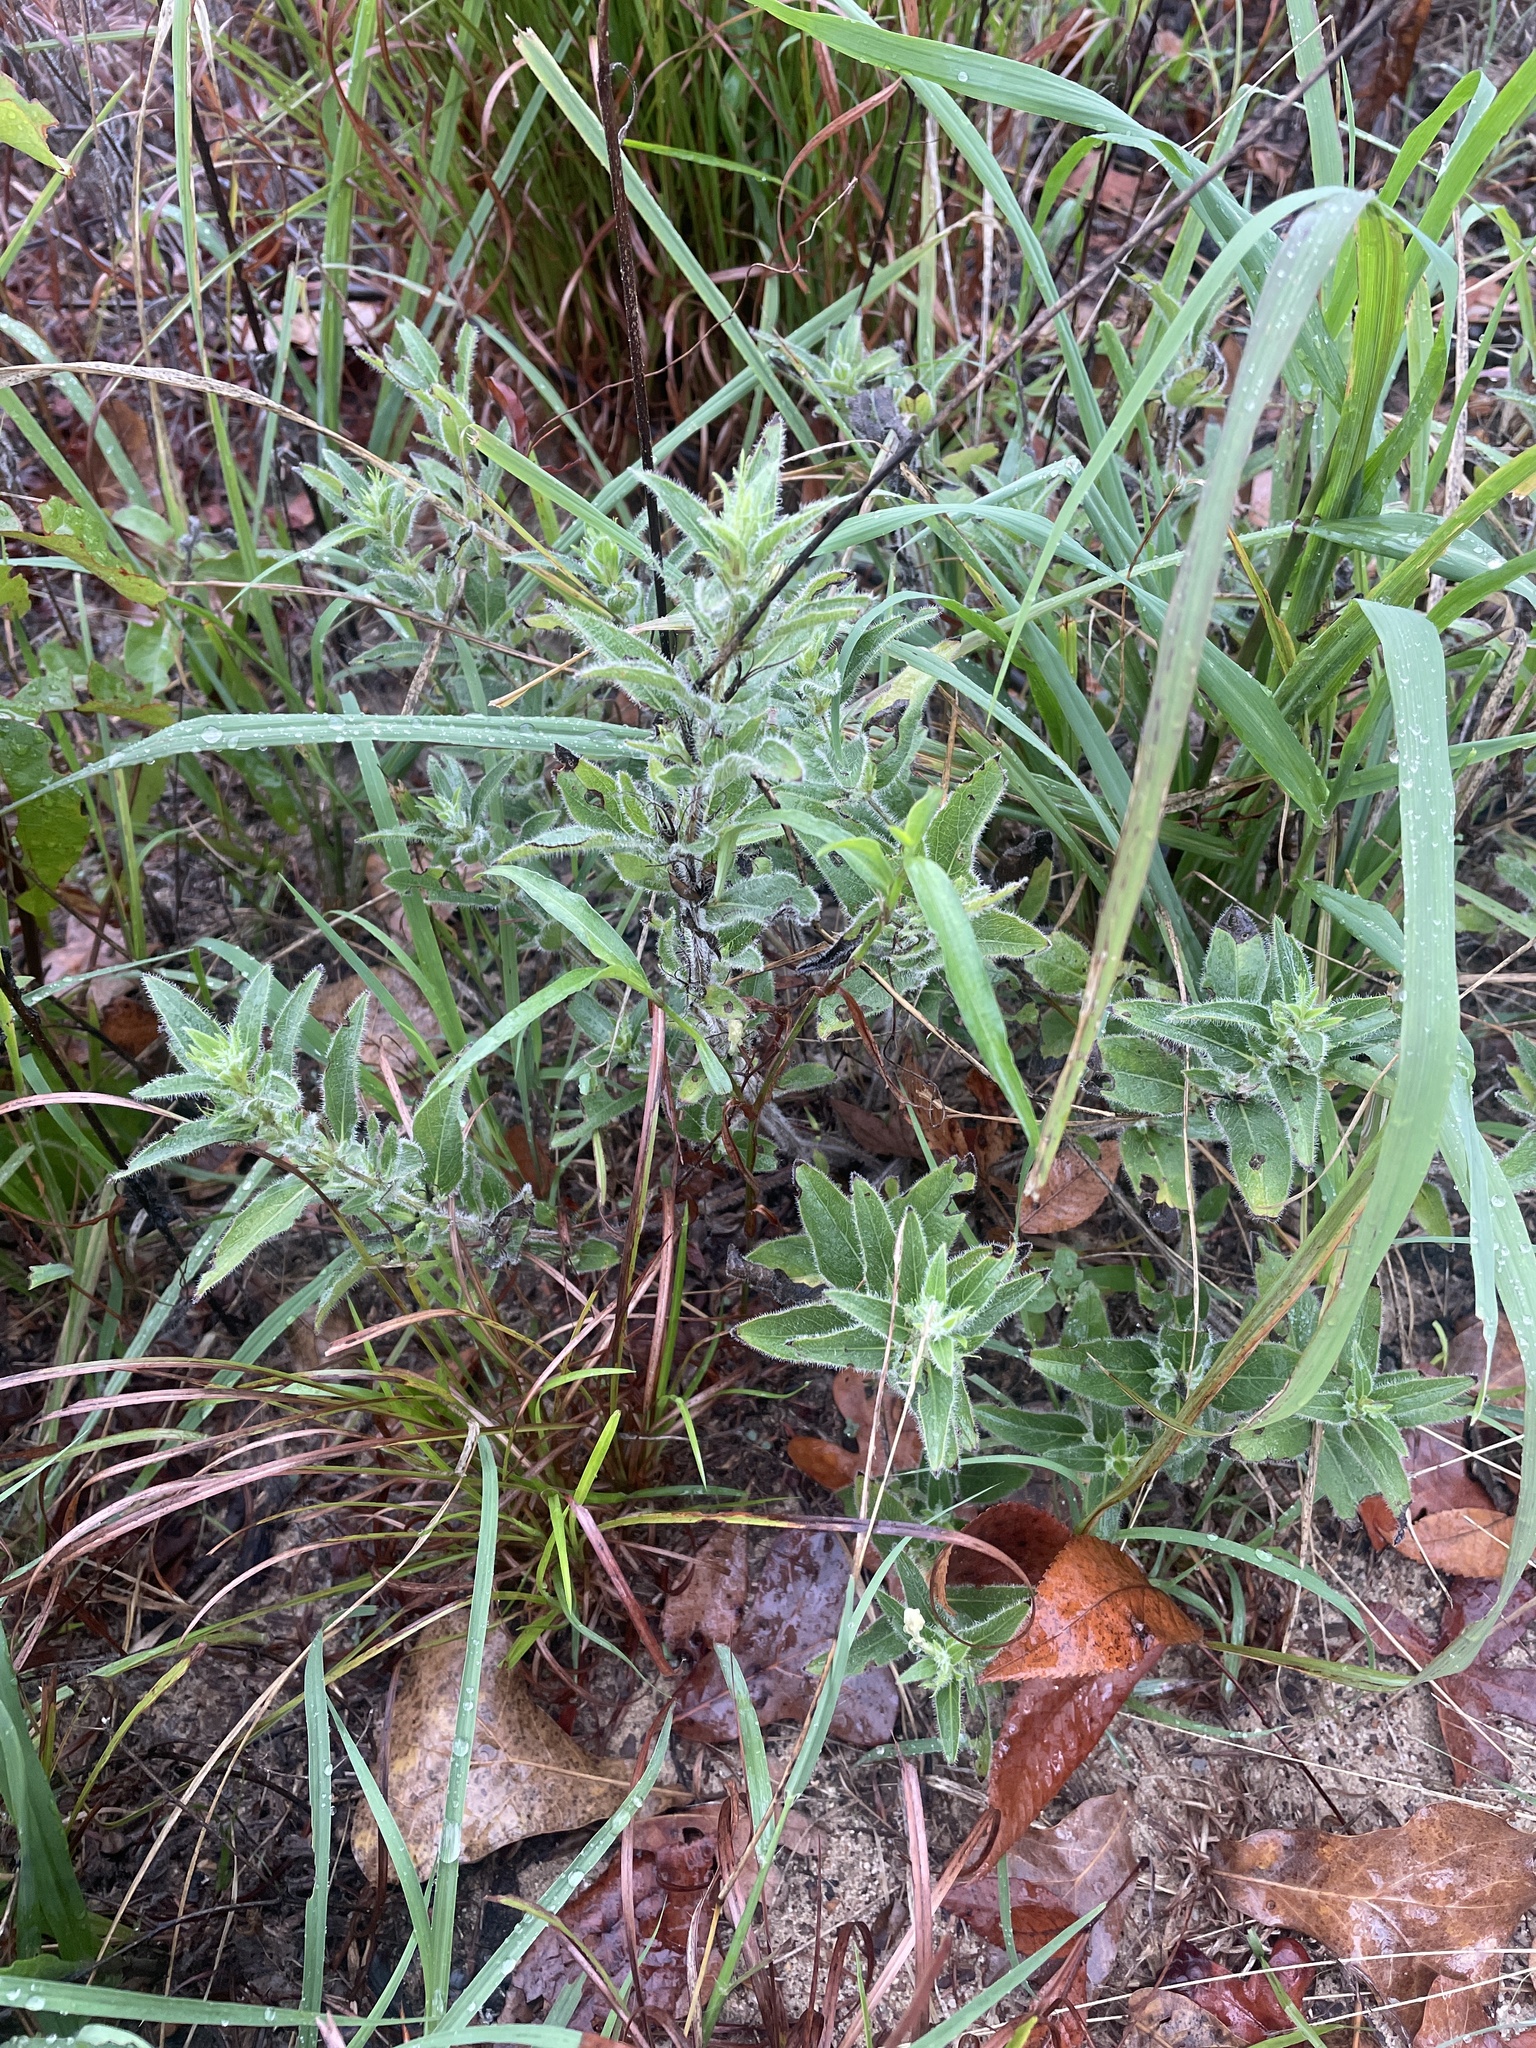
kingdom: Plantae
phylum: Tracheophyta
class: Magnoliopsida
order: Lamiales
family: Acanthaceae
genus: Ruellia
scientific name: Ruellia humilis
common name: Fringe-leaf ruellia
